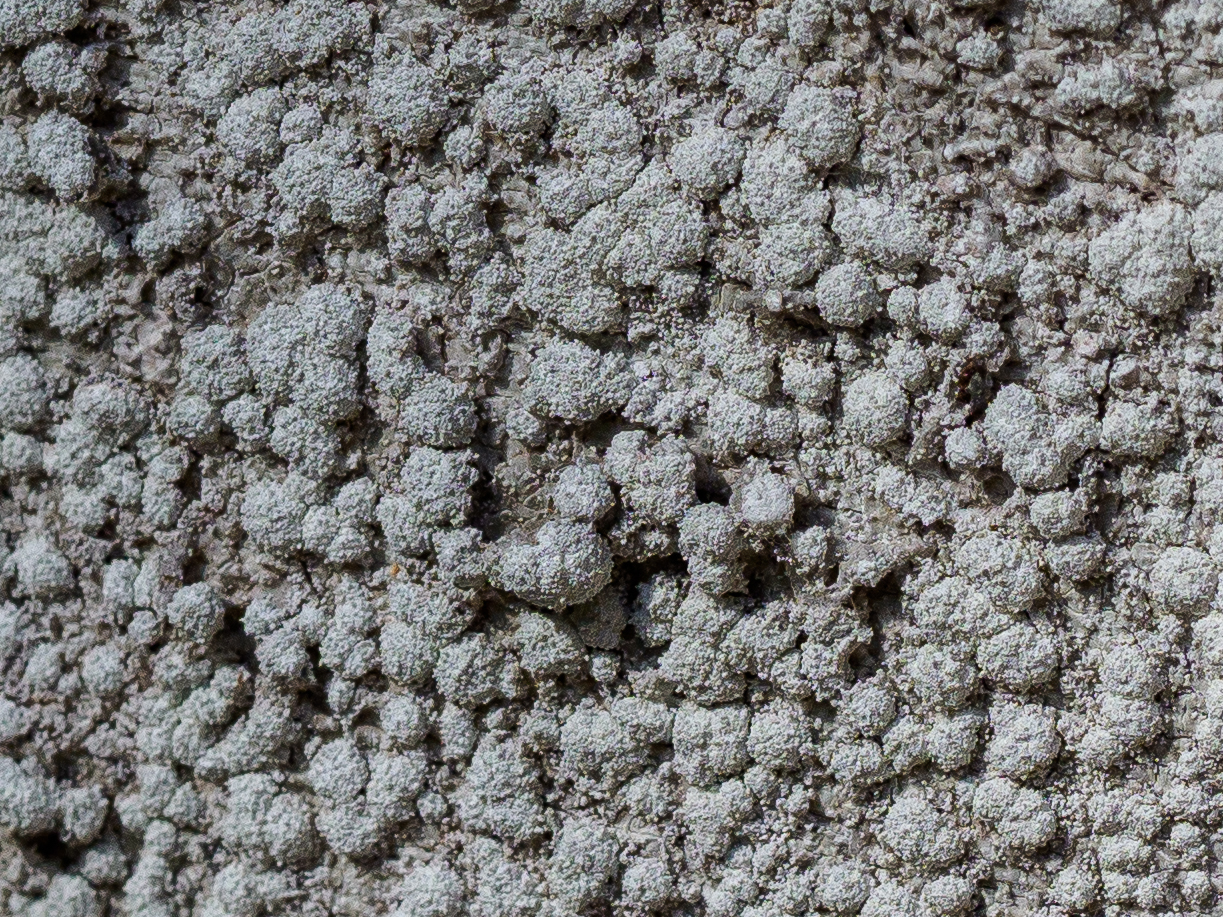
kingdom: Fungi
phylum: Ascomycota
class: Lecanoromycetes
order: Pertusariales
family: Pertusariaceae
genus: Lepra
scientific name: Lepra amara
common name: Bitter wart lichen
